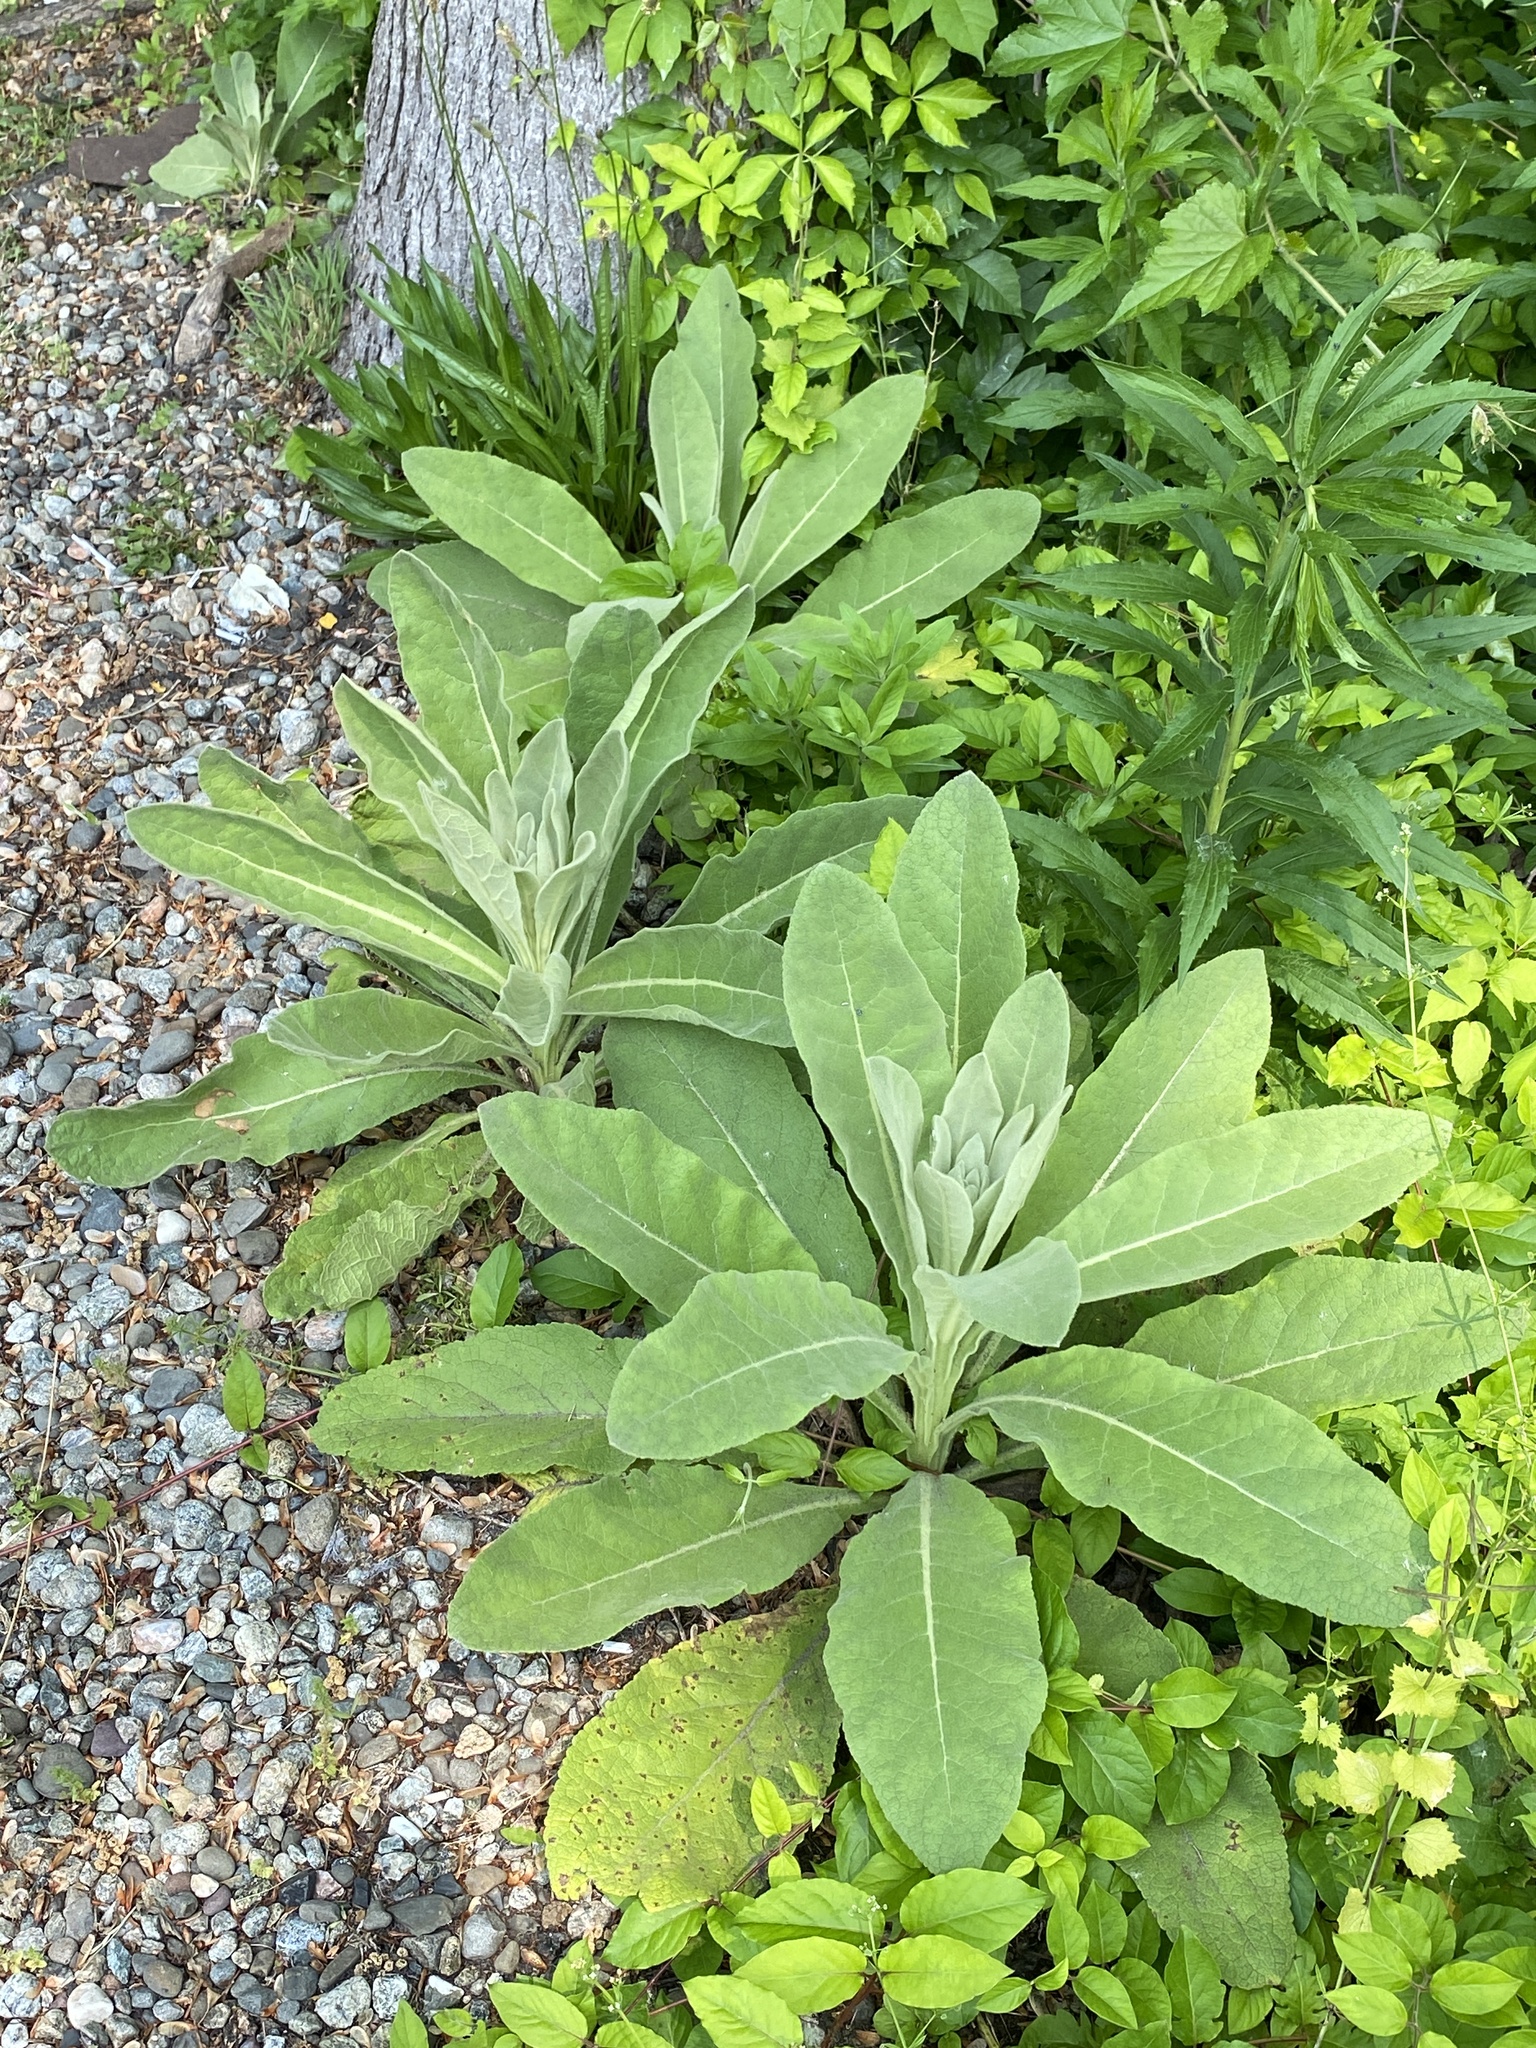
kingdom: Plantae
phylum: Tracheophyta
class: Magnoliopsida
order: Lamiales
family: Scrophulariaceae
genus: Verbascum
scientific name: Verbascum thapsus
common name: Common mullein
